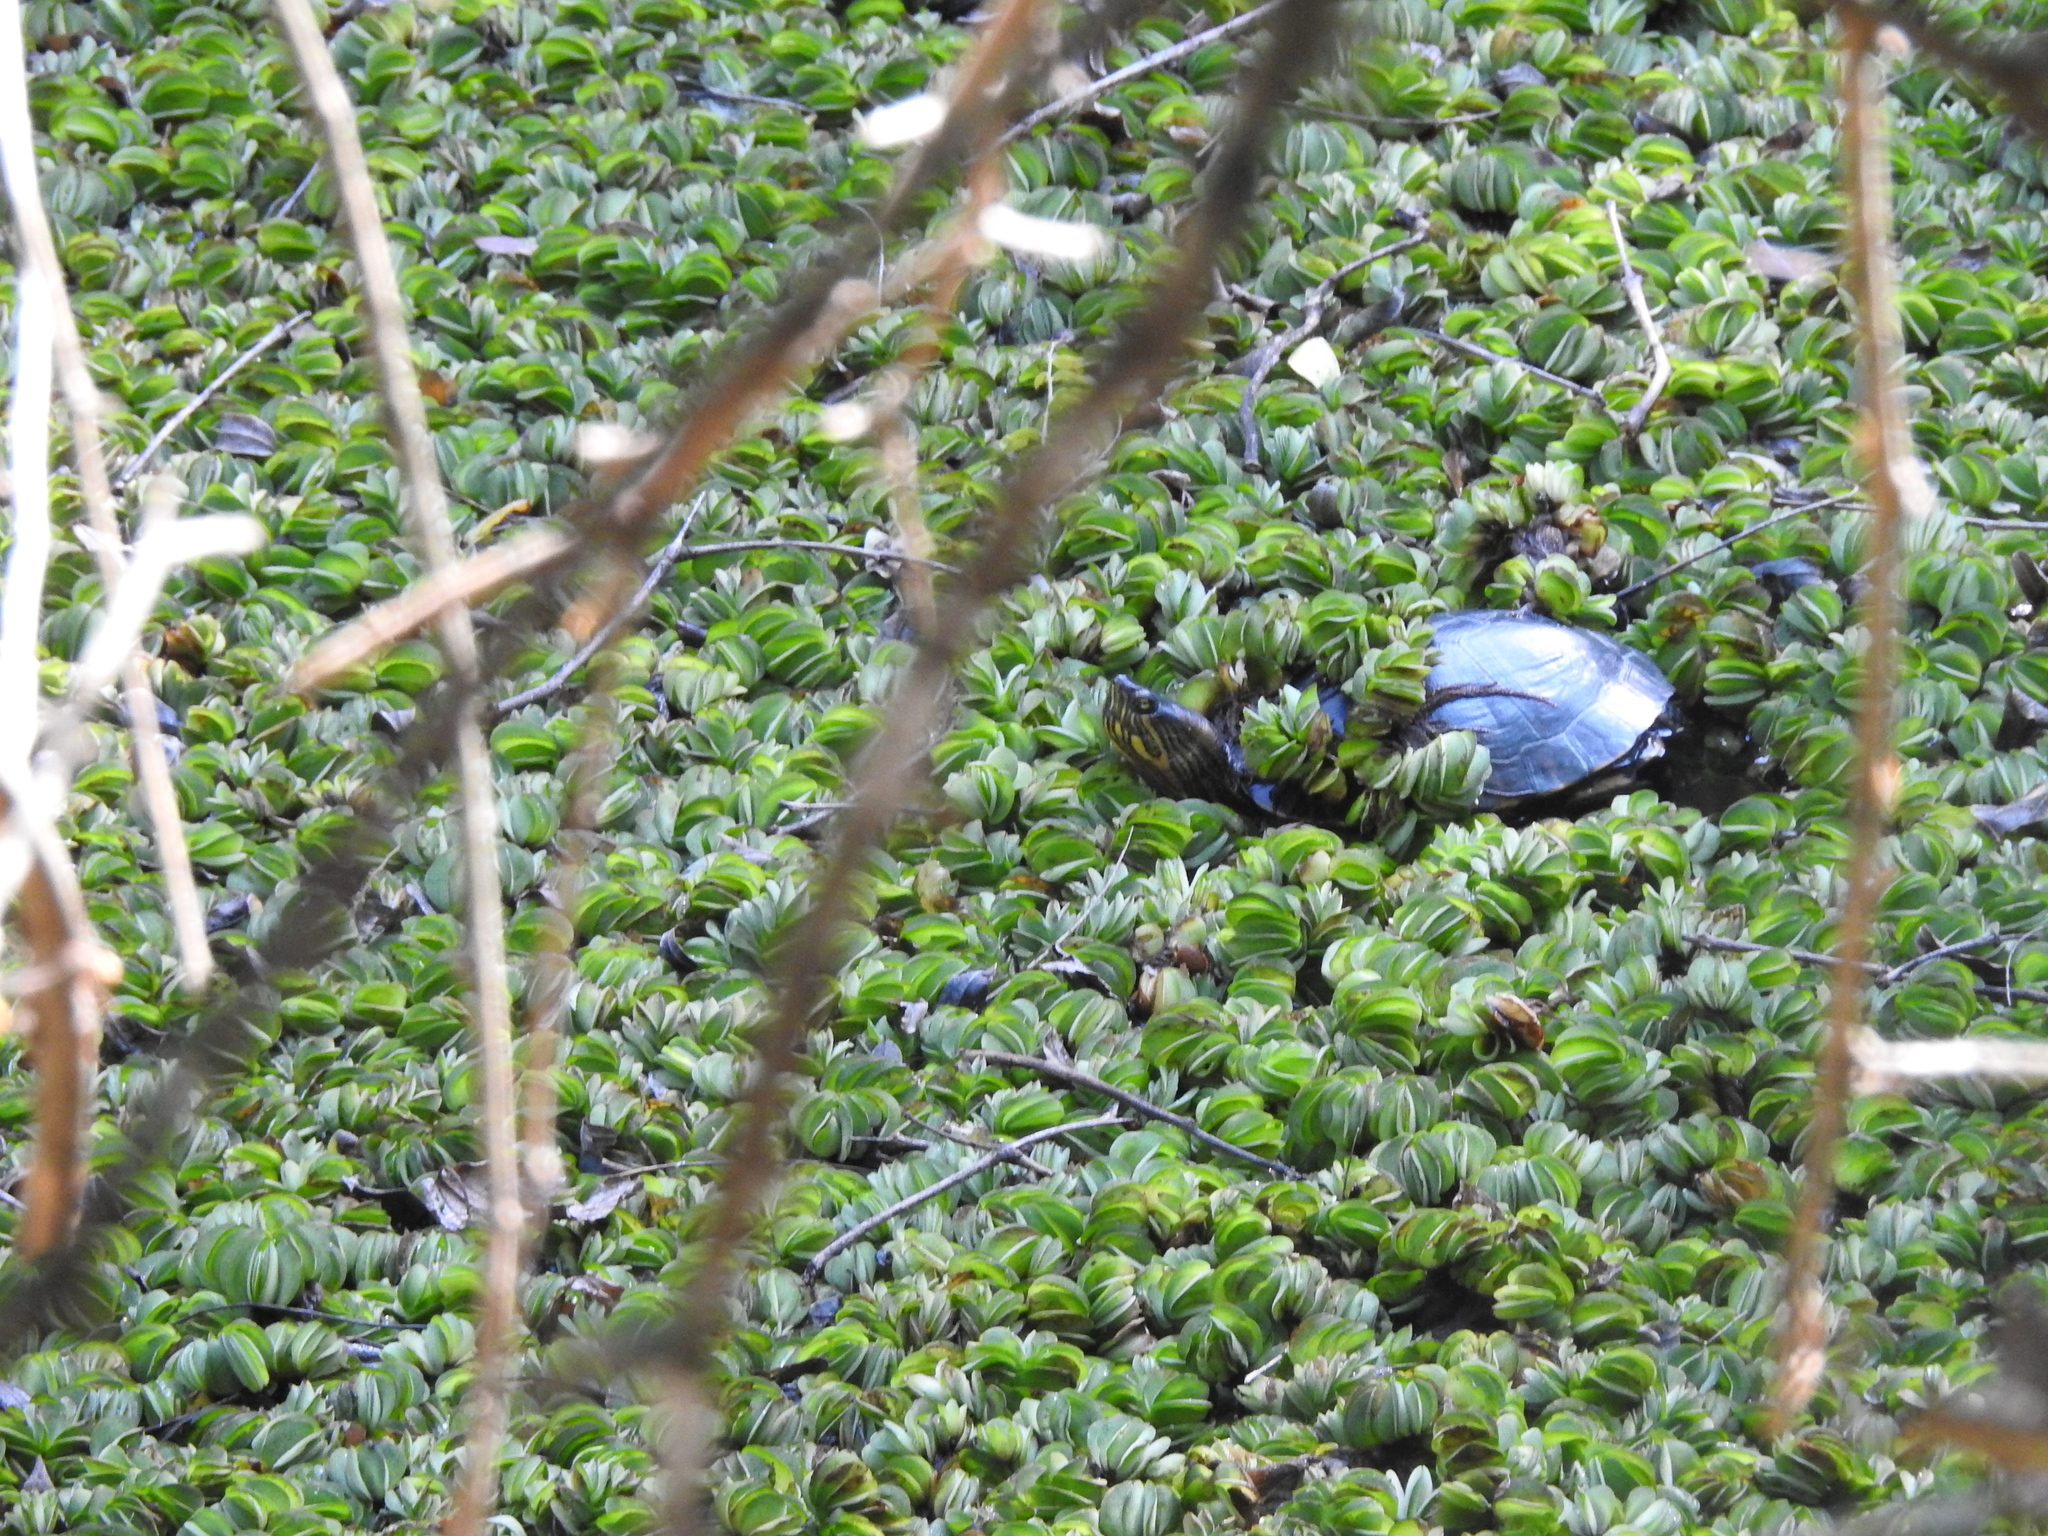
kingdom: Animalia
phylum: Chordata
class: Testudines
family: Emydidae
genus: Trachemys
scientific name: Trachemys dorbigni
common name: Black-bellied slider
